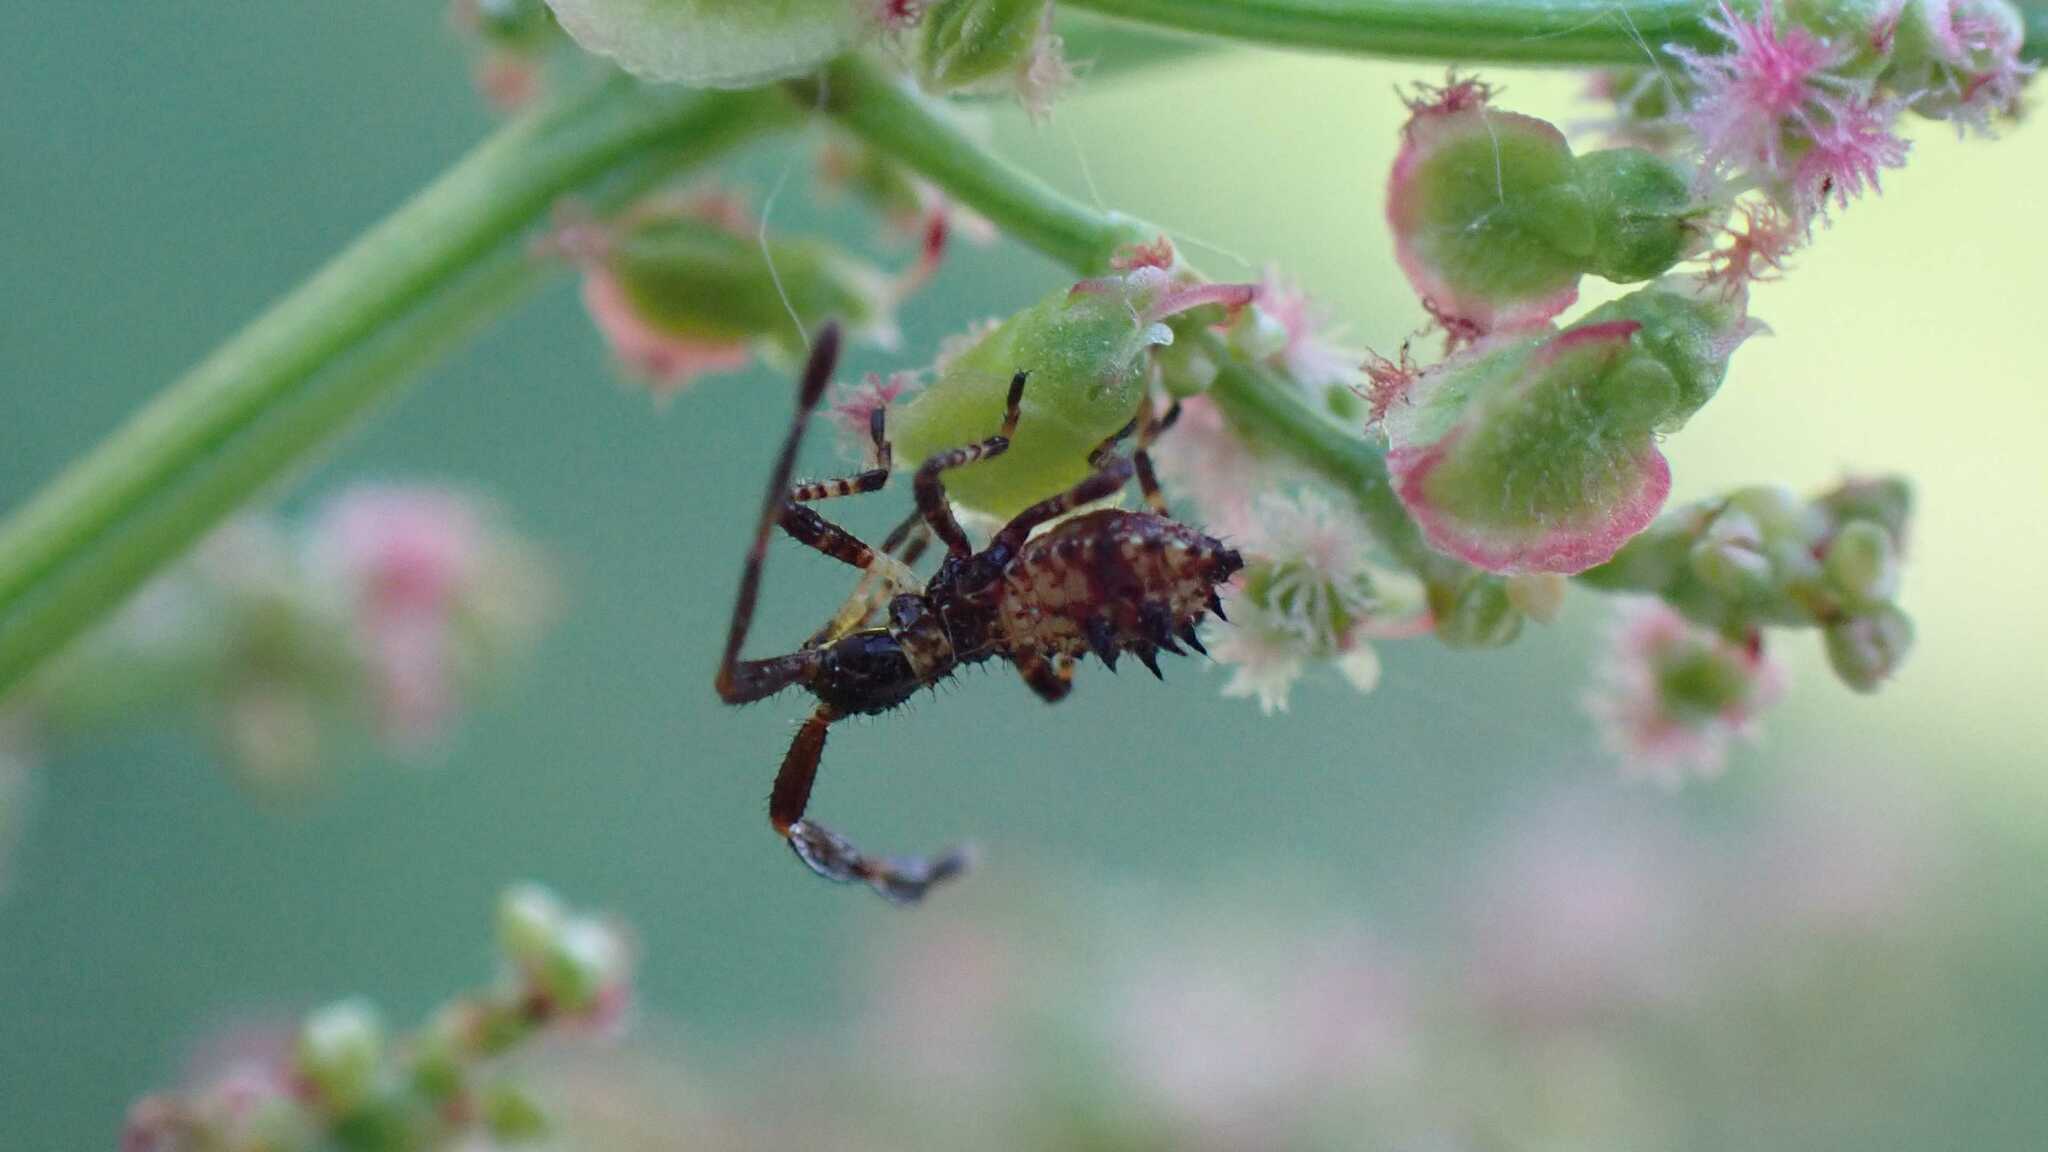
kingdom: Animalia
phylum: Arthropoda
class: Insecta
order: Hemiptera
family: Coreidae
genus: Coreus
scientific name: Coreus marginatus
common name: Dock bug
